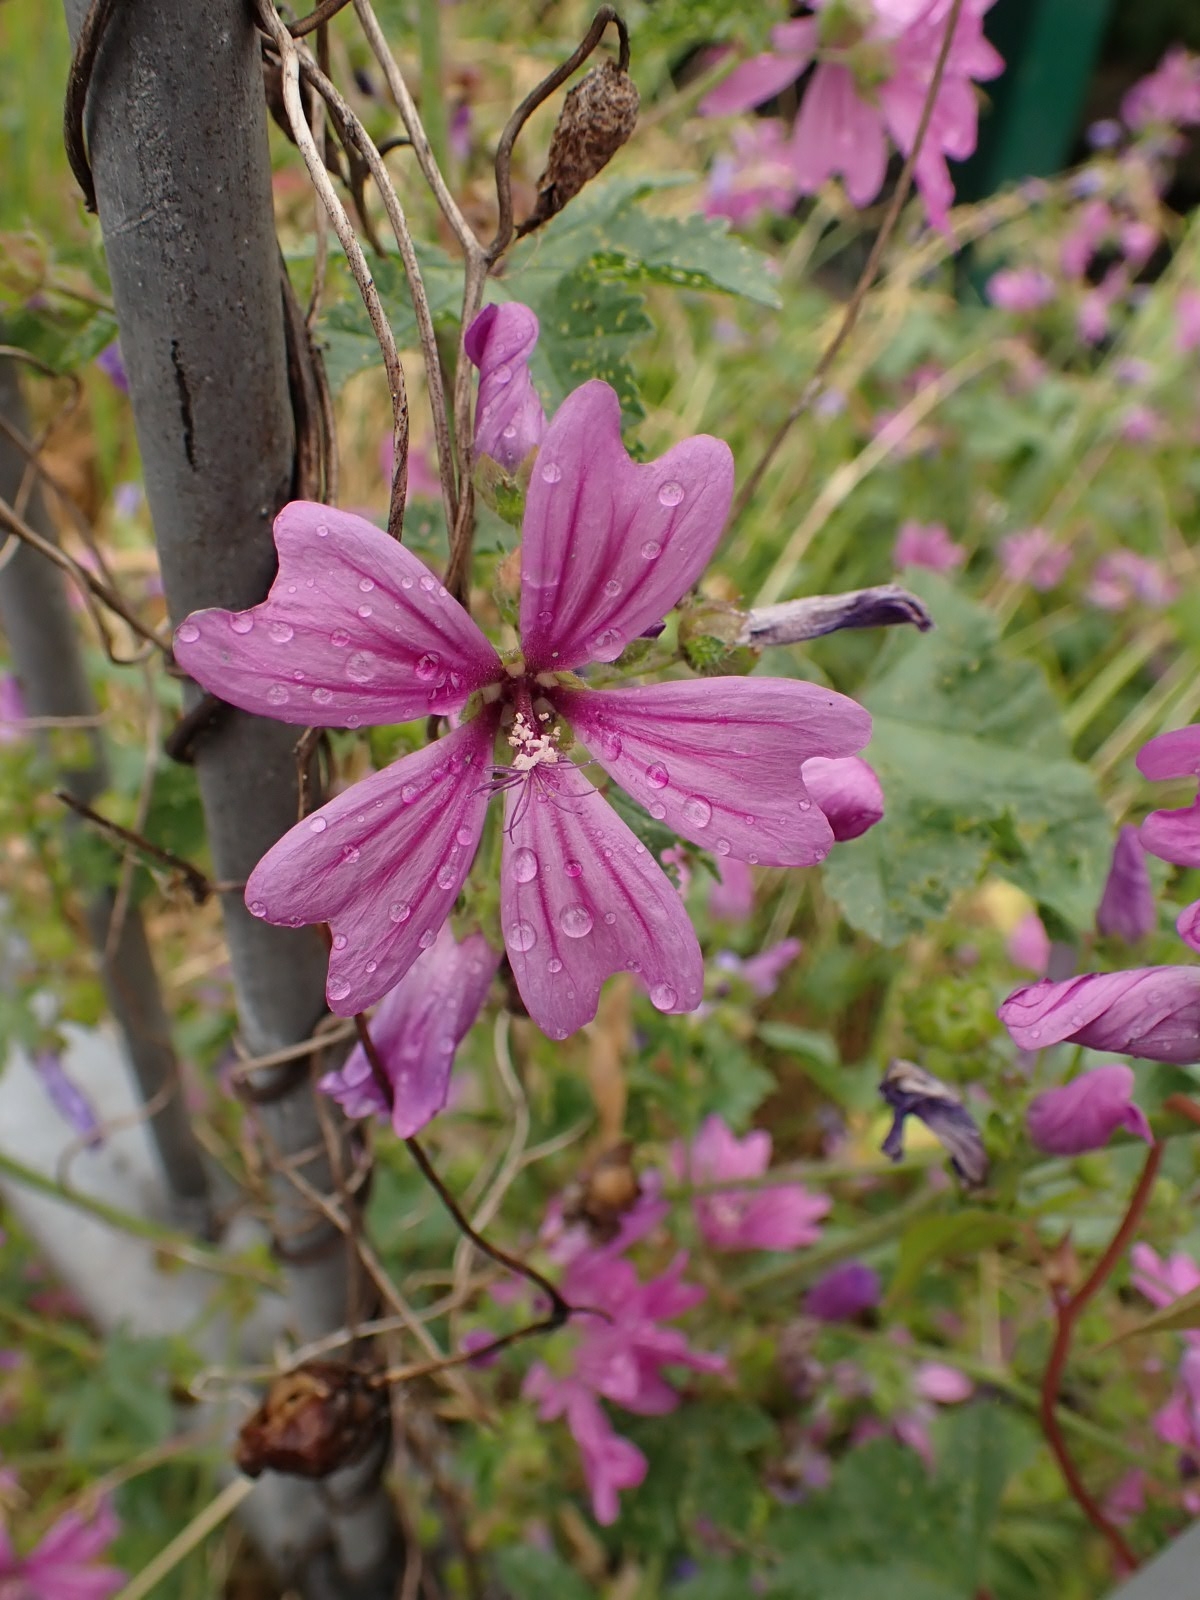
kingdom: Plantae
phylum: Tracheophyta
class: Magnoliopsida
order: Malvales
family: Malvaceae
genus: Malva
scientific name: Malva sylvestris
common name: Common mallow
